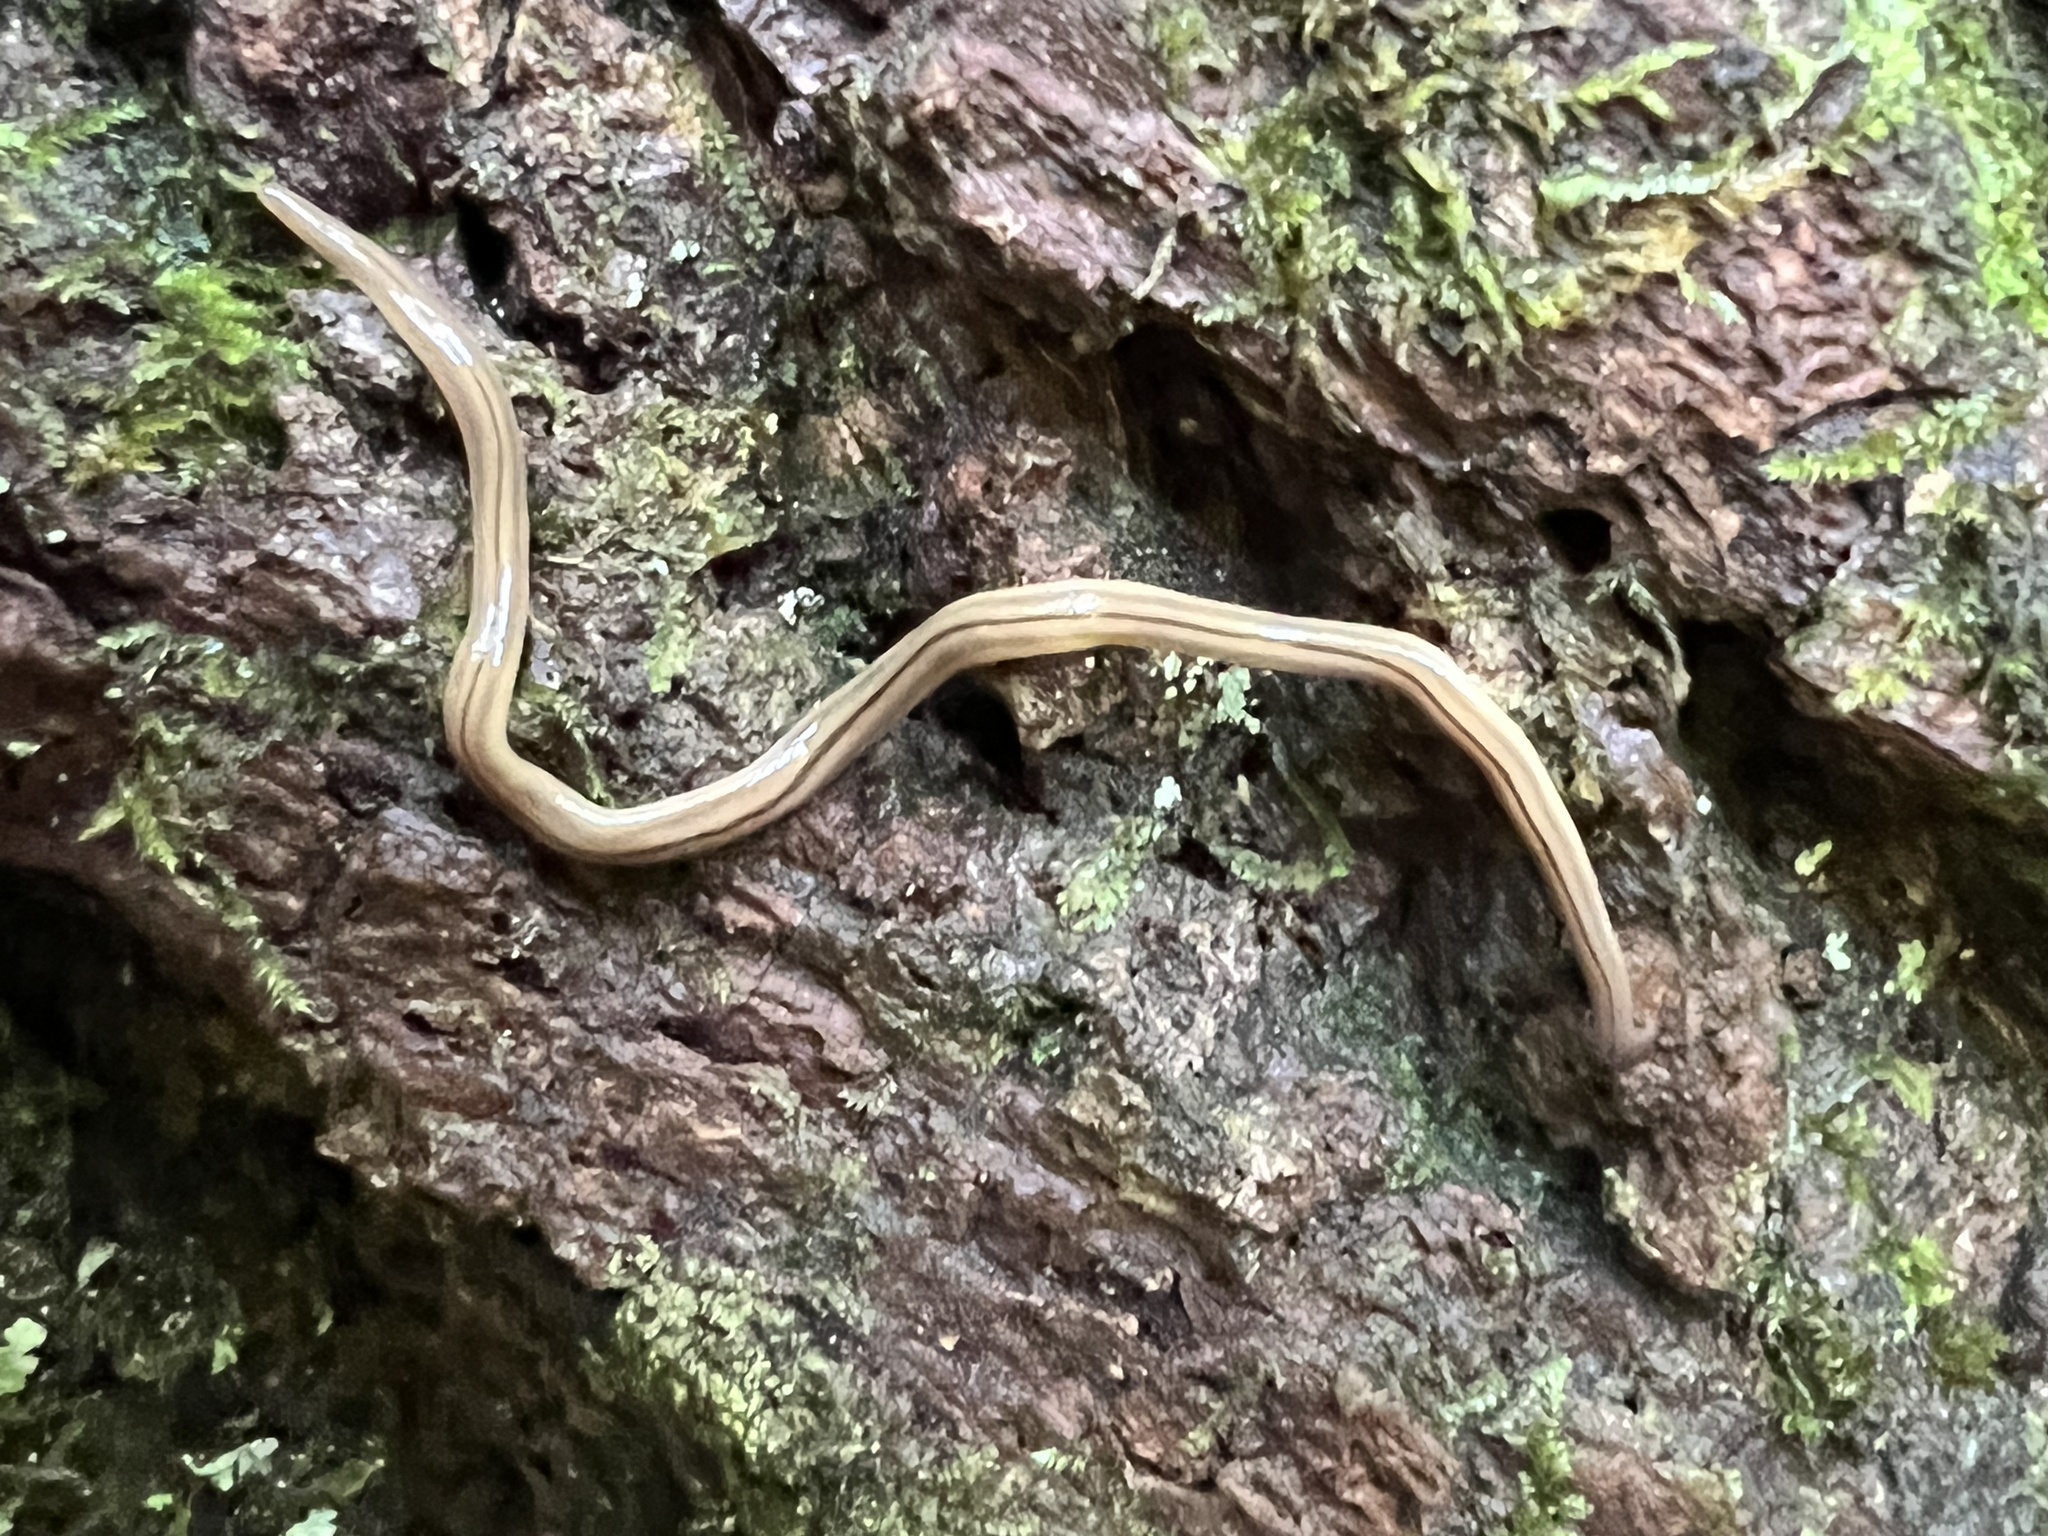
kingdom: Animalia
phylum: Platyhelminthes
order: Tricladida
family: Geoplanidae
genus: Bipalium
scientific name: Bipalium pennsylvanicum
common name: Three-lined land planarian
